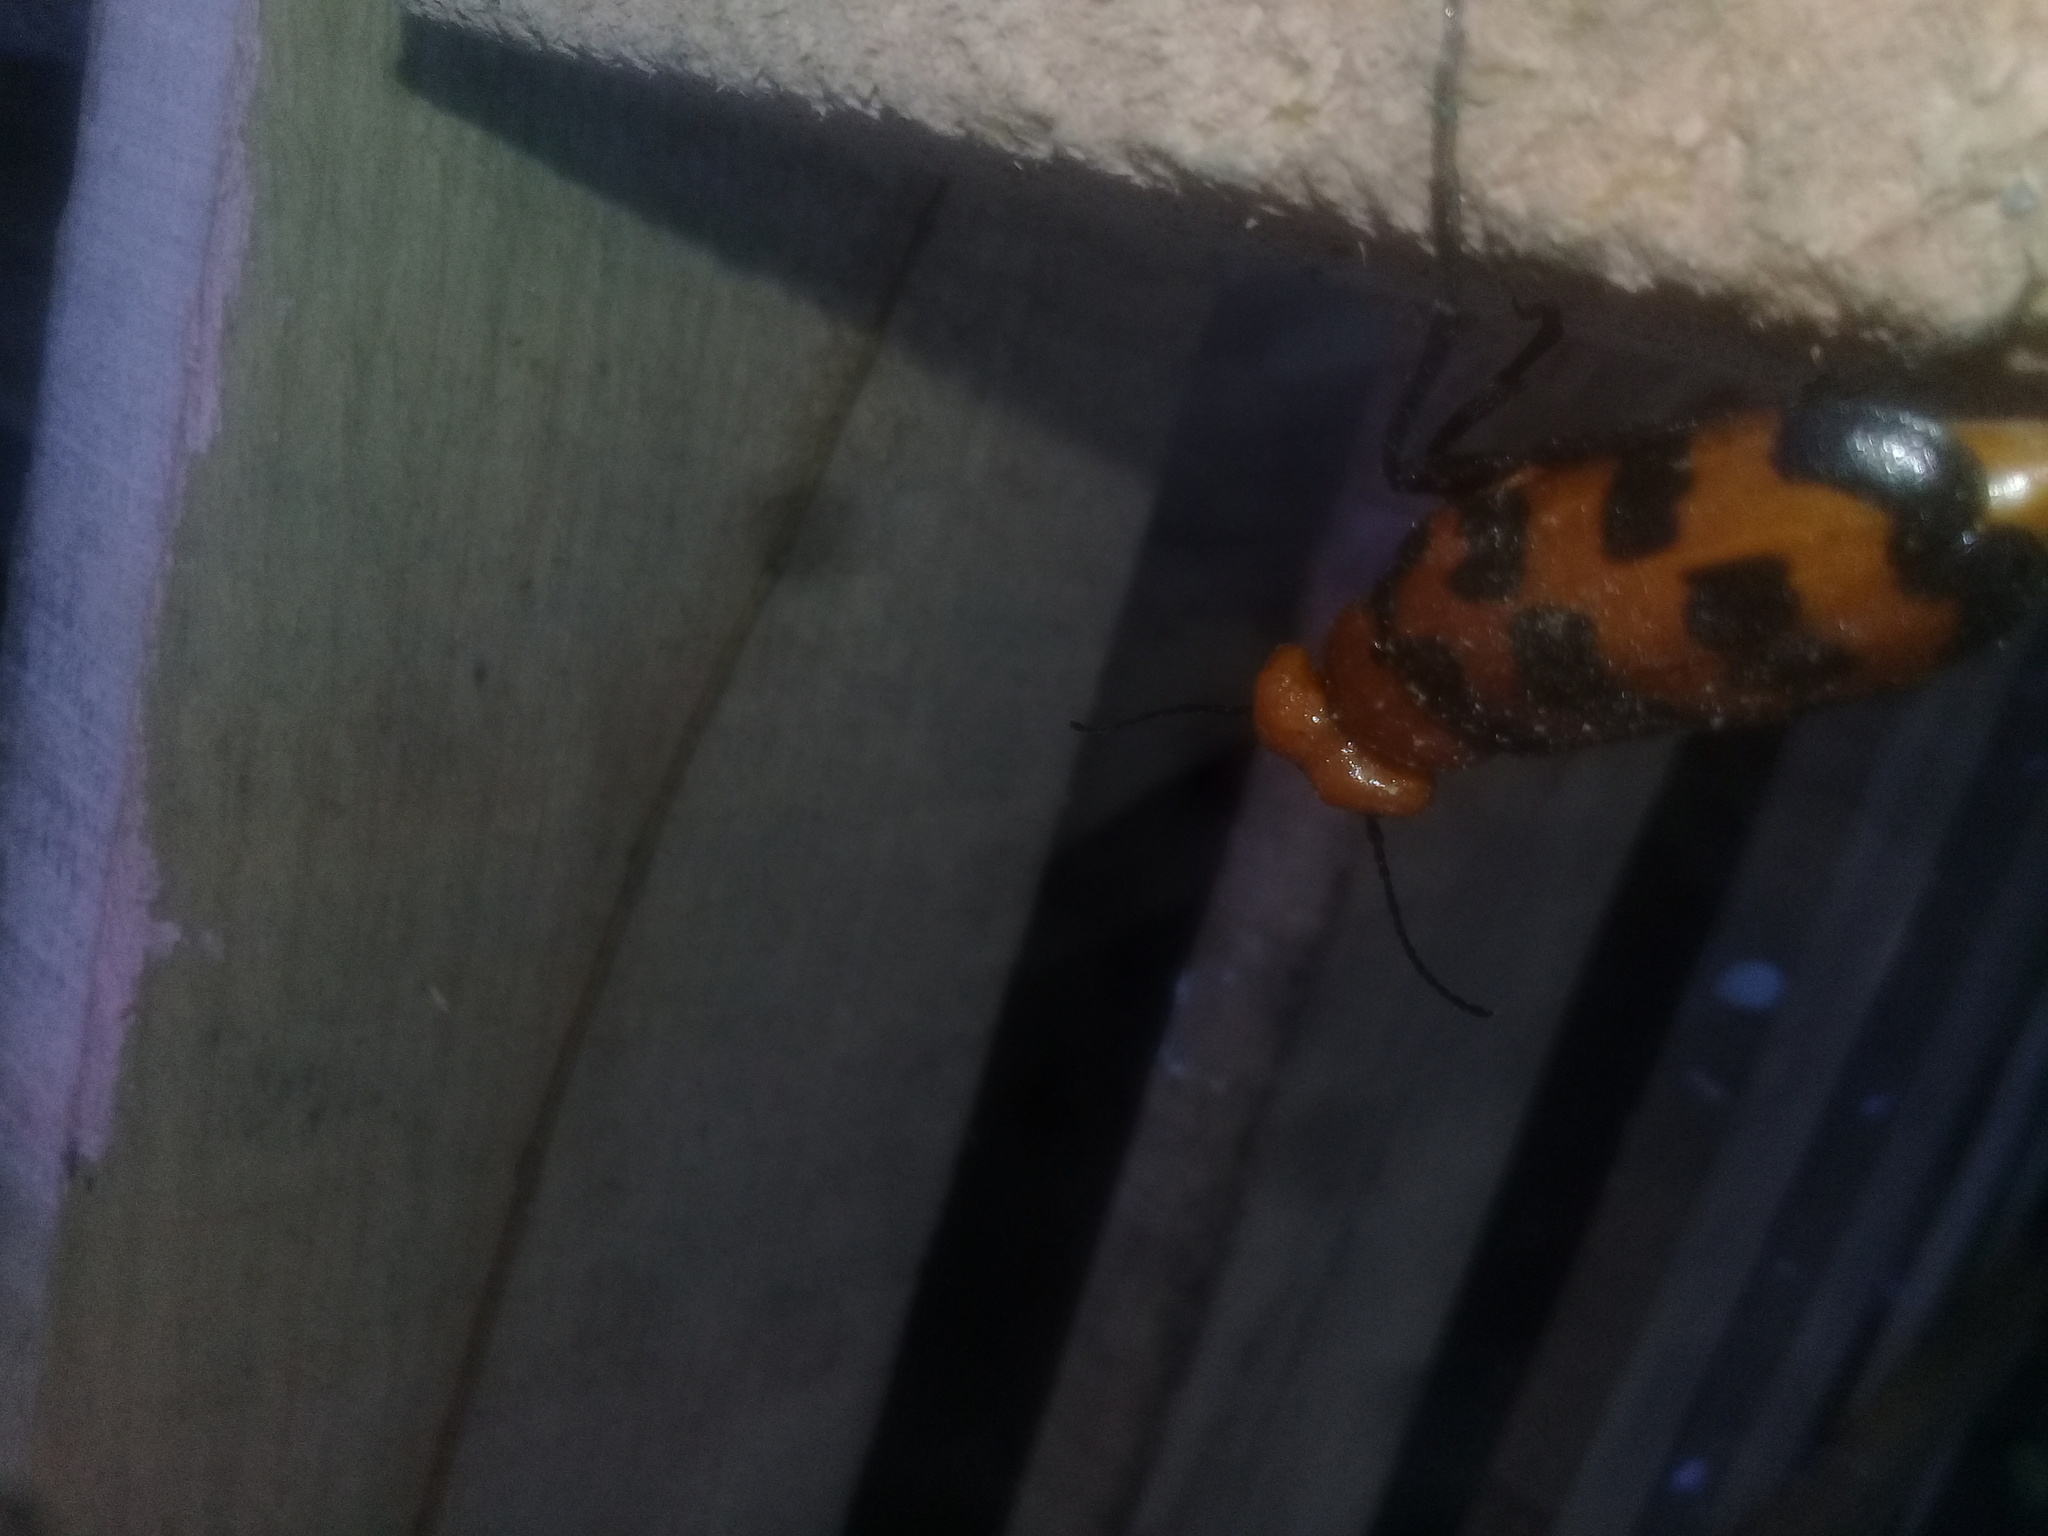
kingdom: Animalia
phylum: Arthropoda
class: Insecta
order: Coleoptera
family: Meloidae
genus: Cissites
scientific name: Cissites auriculata
